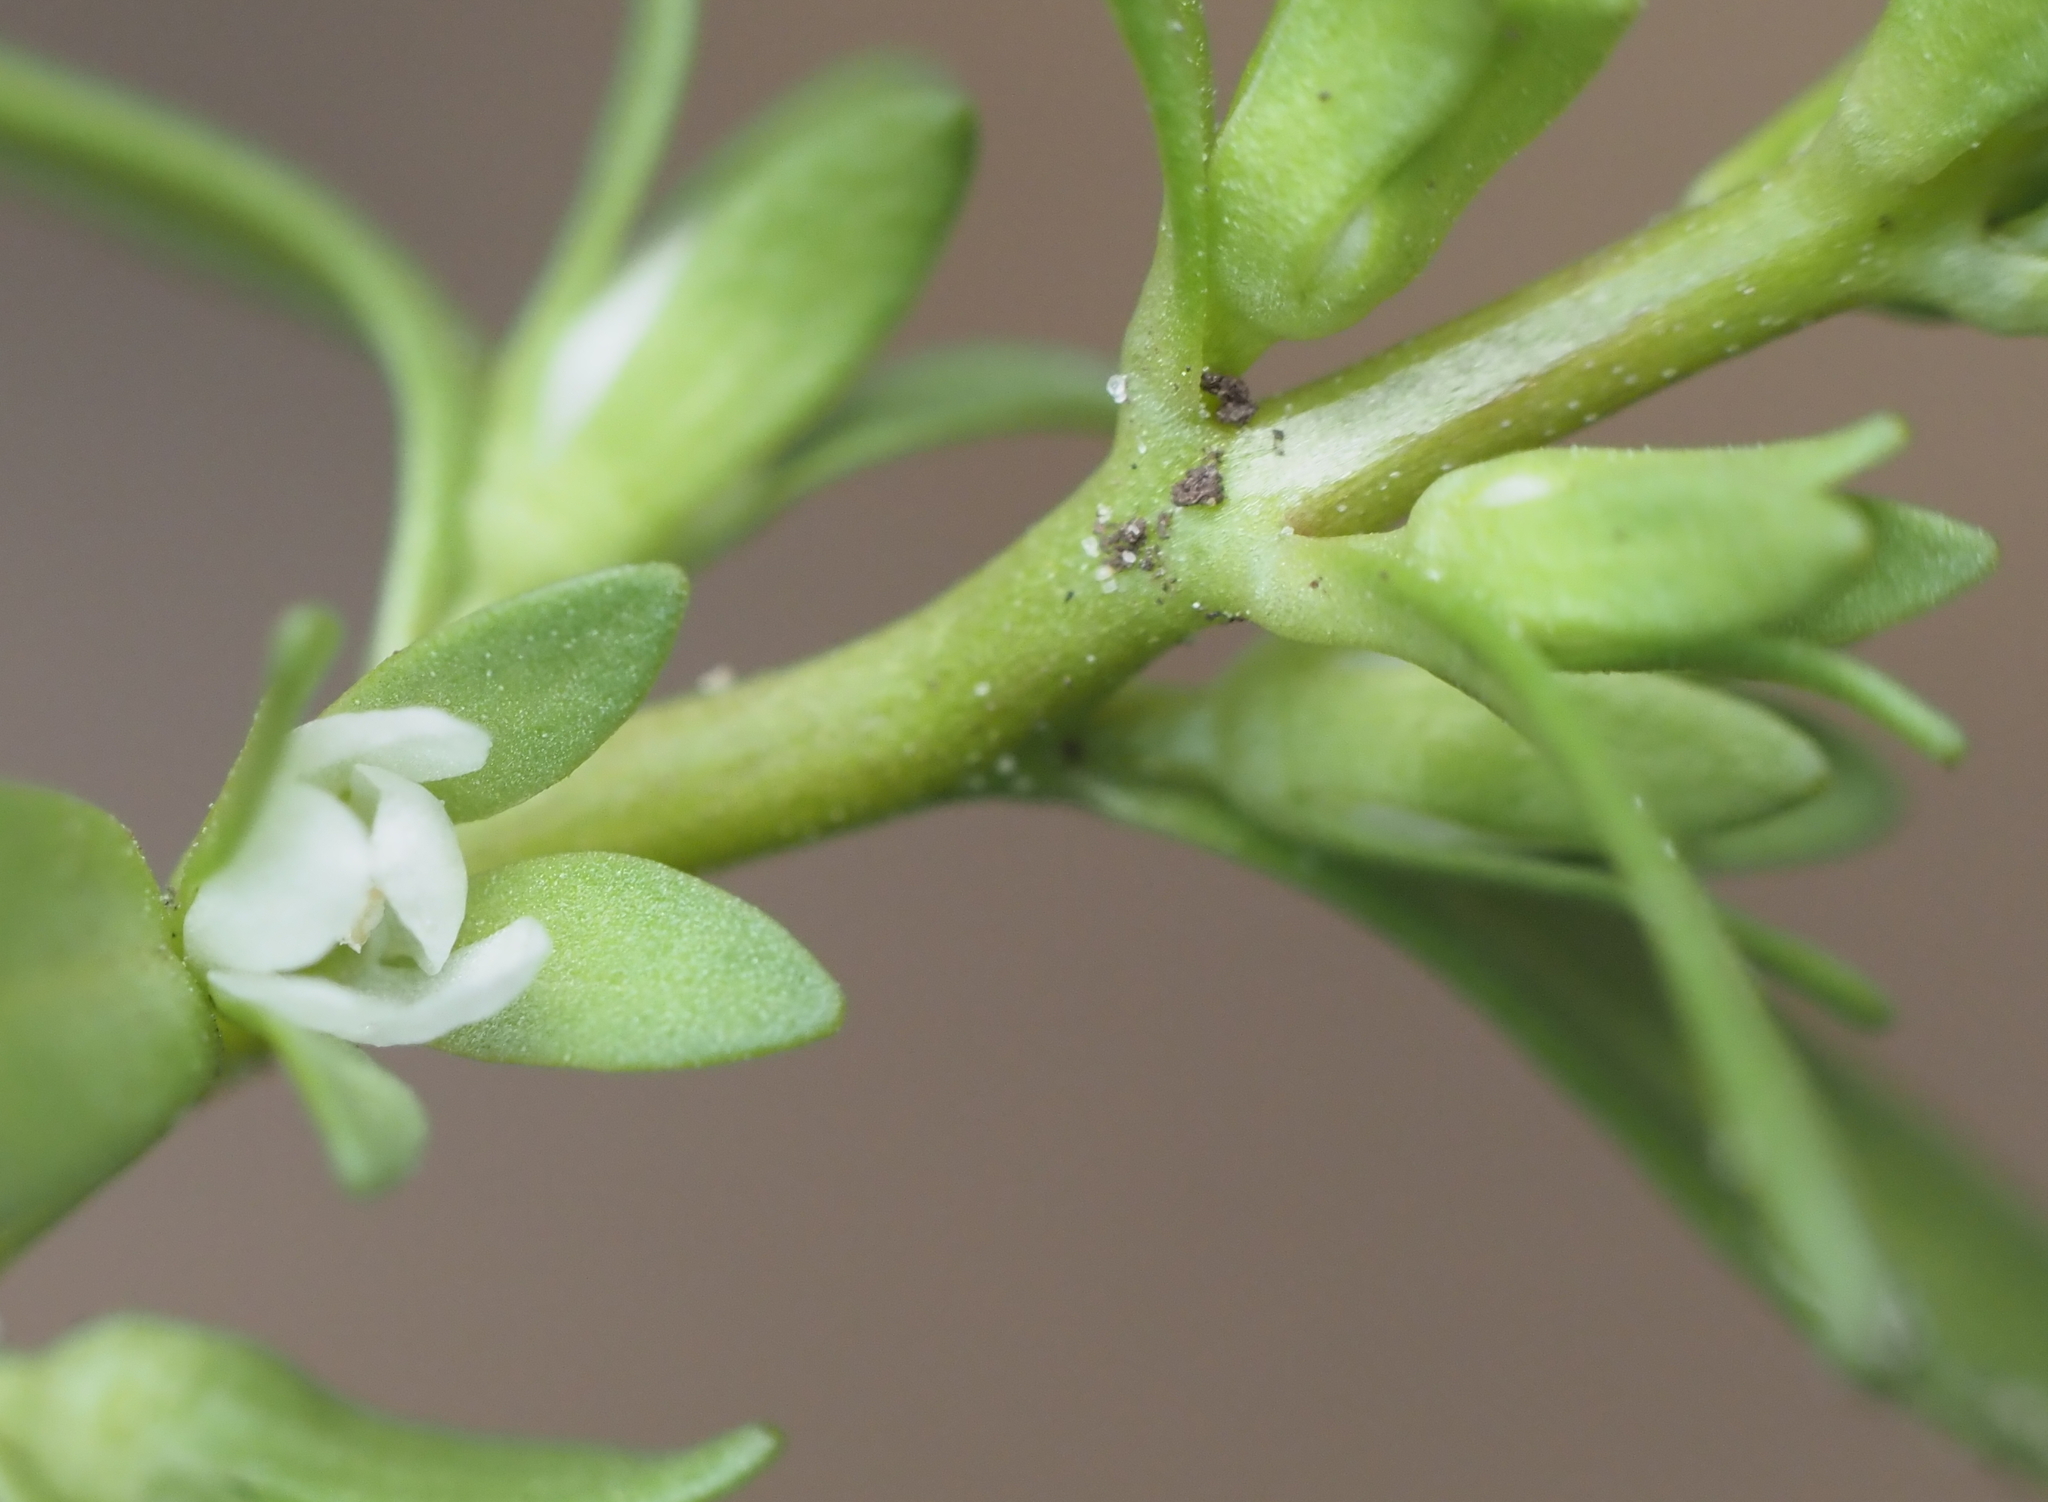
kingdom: Plantae
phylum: Tracheophyta
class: Magnoliopsida
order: Lamiales
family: Plantaginaceae
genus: Veronica
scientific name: Veronica peregrina
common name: Neckweed
